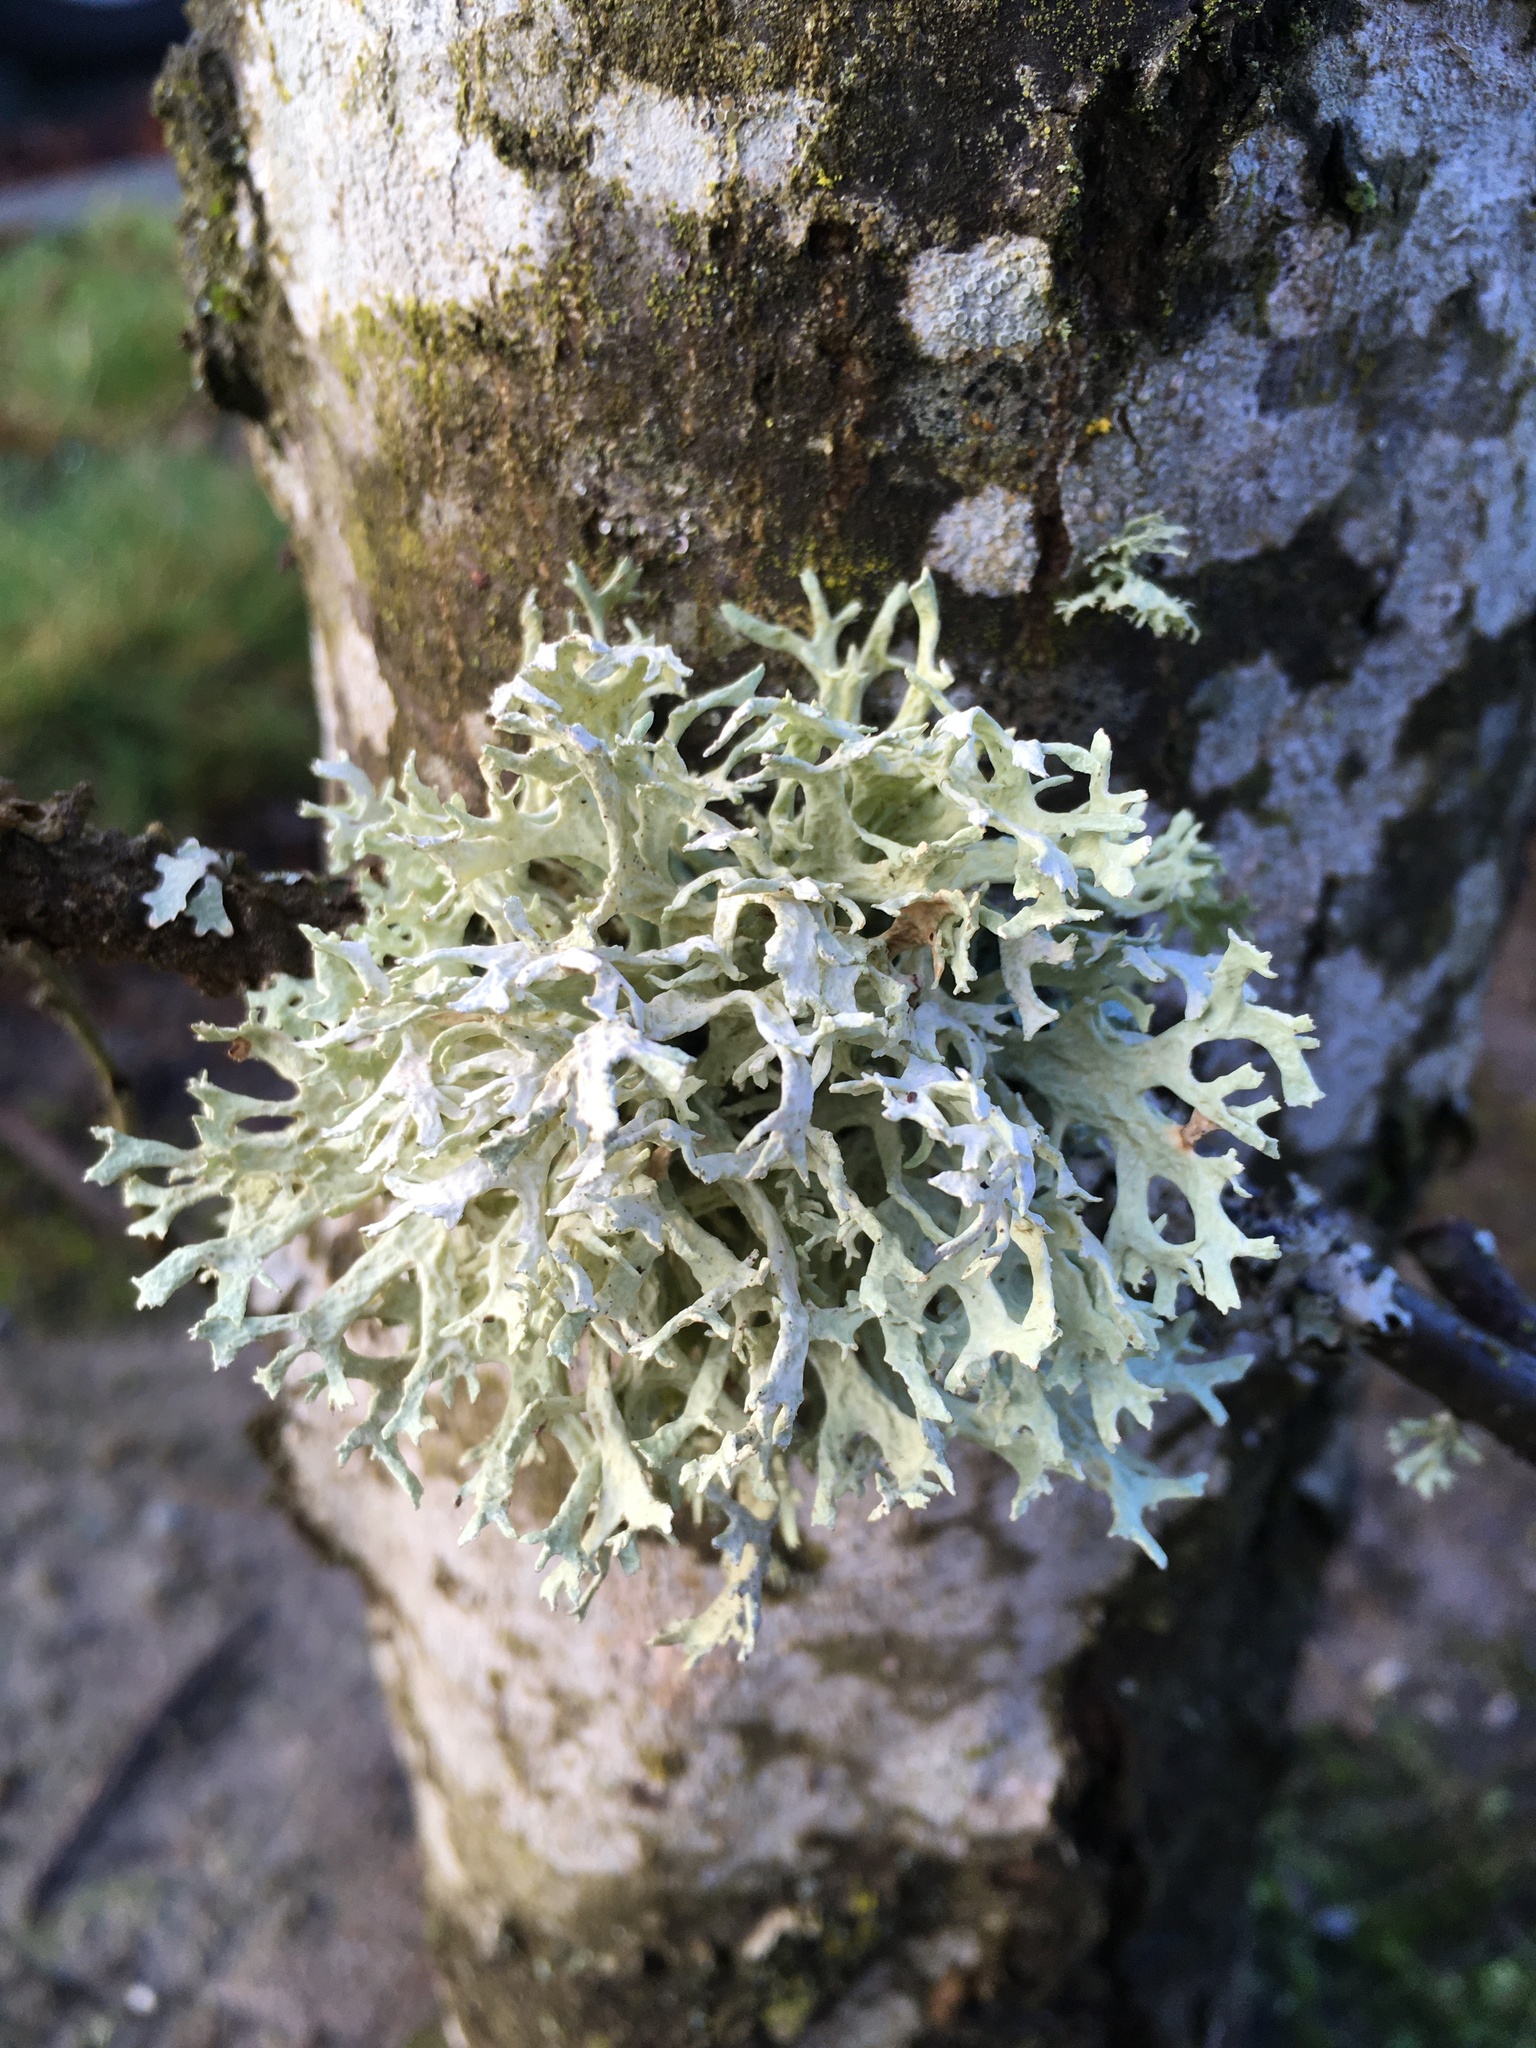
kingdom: Fungi
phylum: Ascomycota
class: Lecanoromycetes
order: Lecanorales
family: Parmeliaceae
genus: Evernia
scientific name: Evernia prunastri
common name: Oak moss
